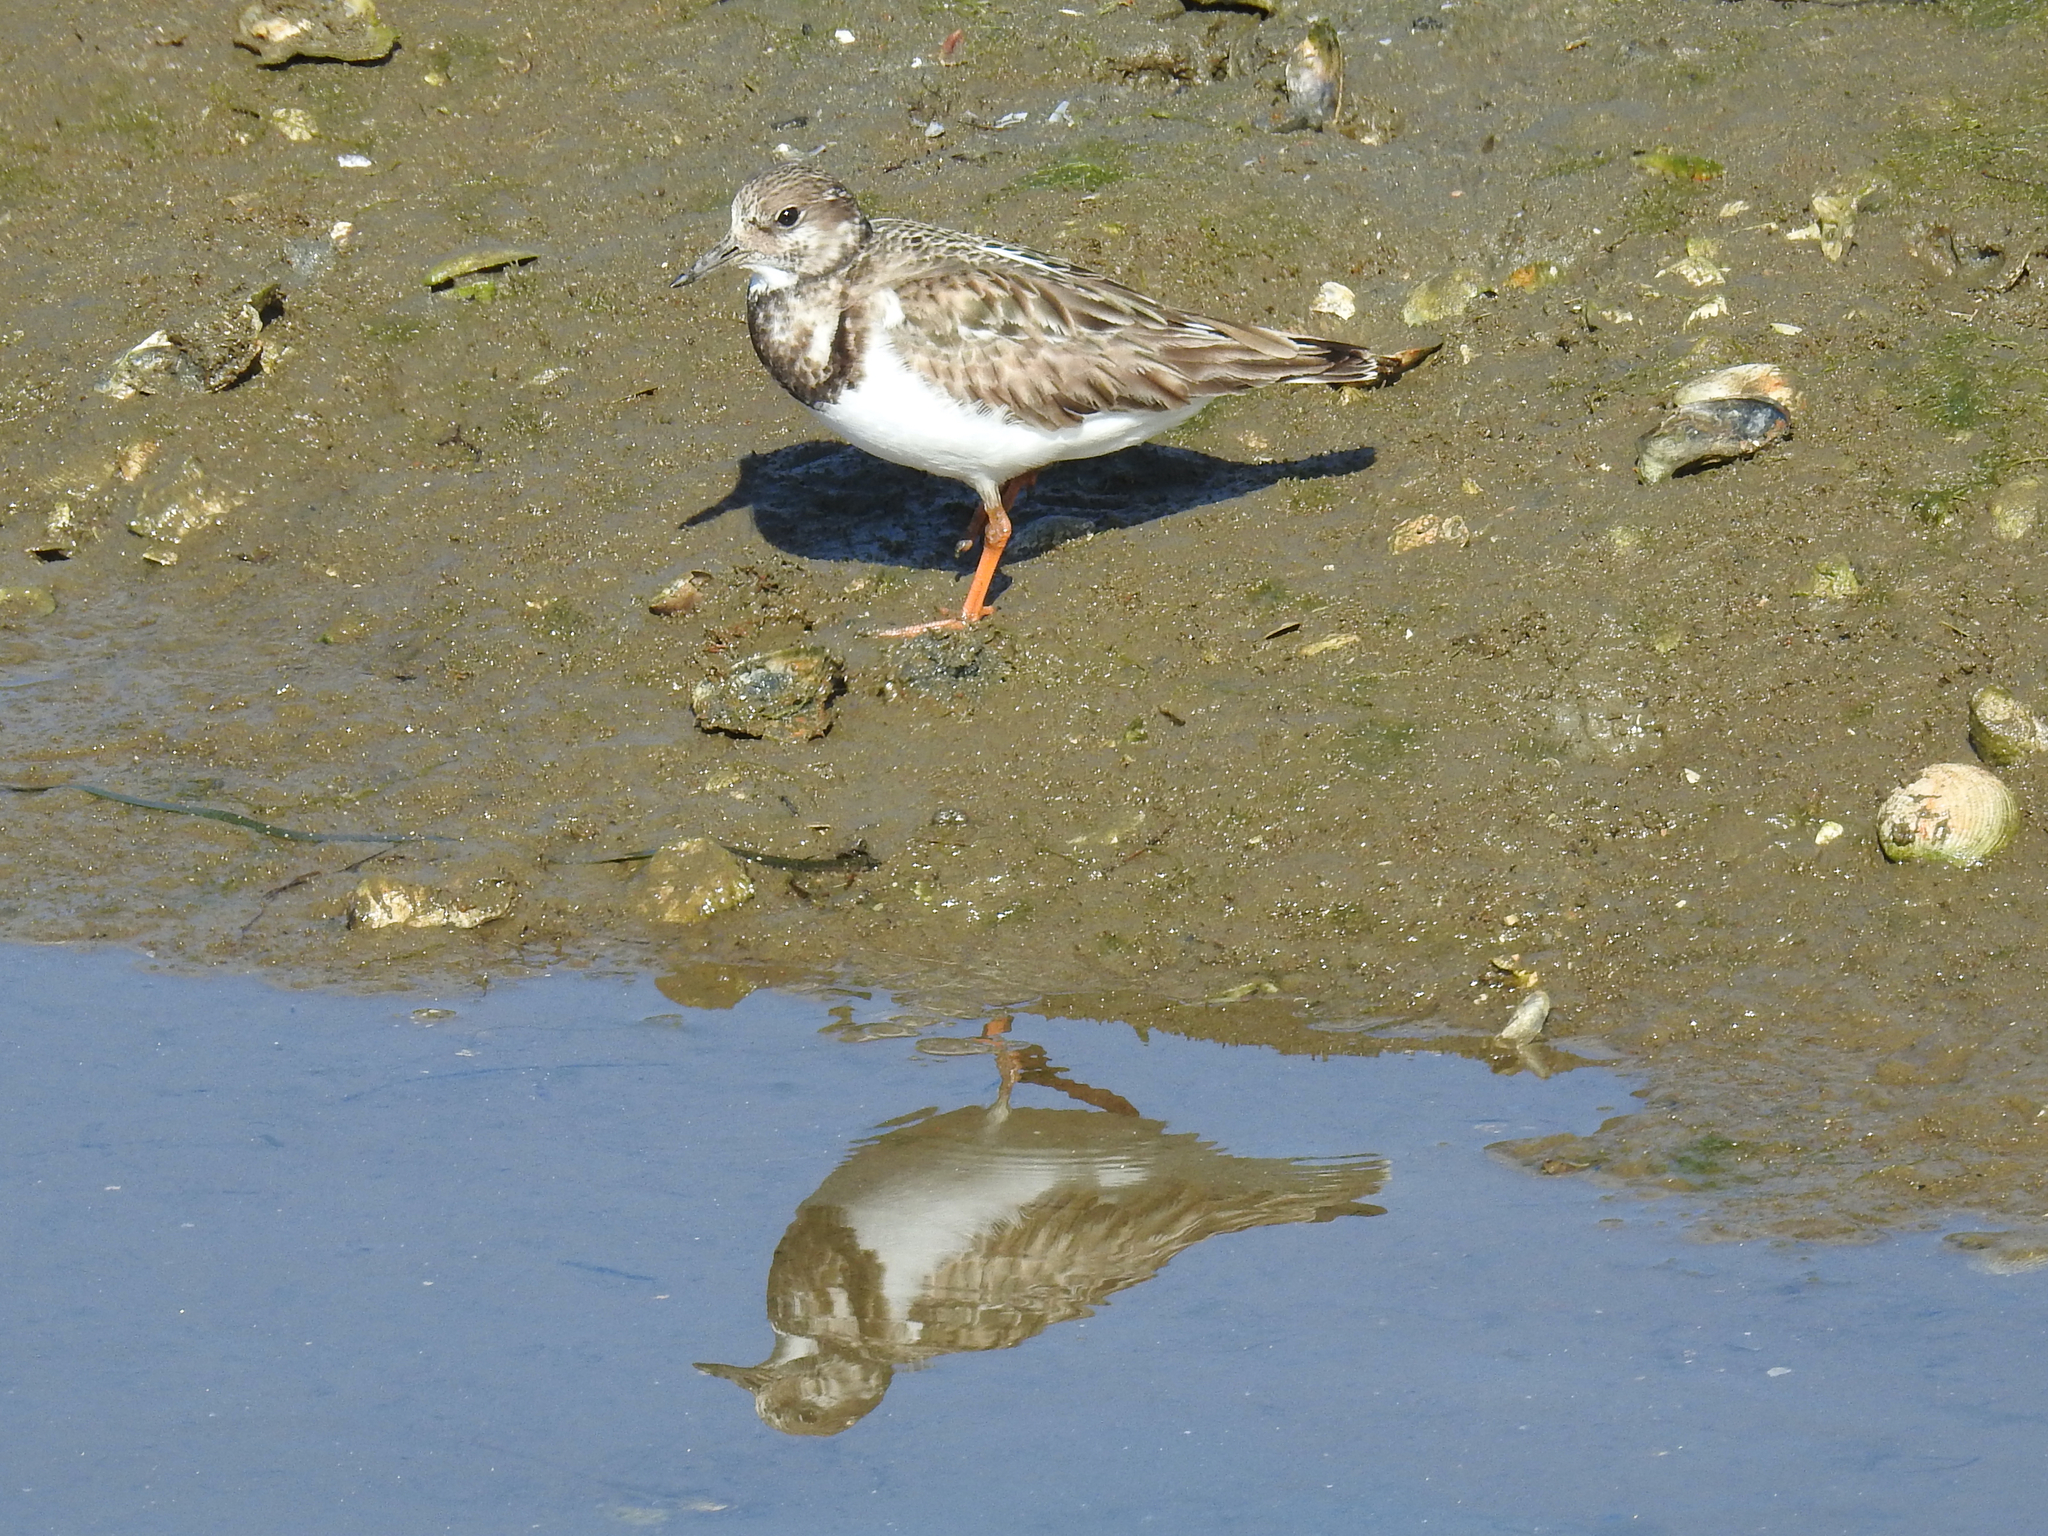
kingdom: Animalia
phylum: Chordata
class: Aves
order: Charadriiformes
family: Scolopacidae
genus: Arenaria
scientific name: Arenaria interpres
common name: Ruddy turnstone
